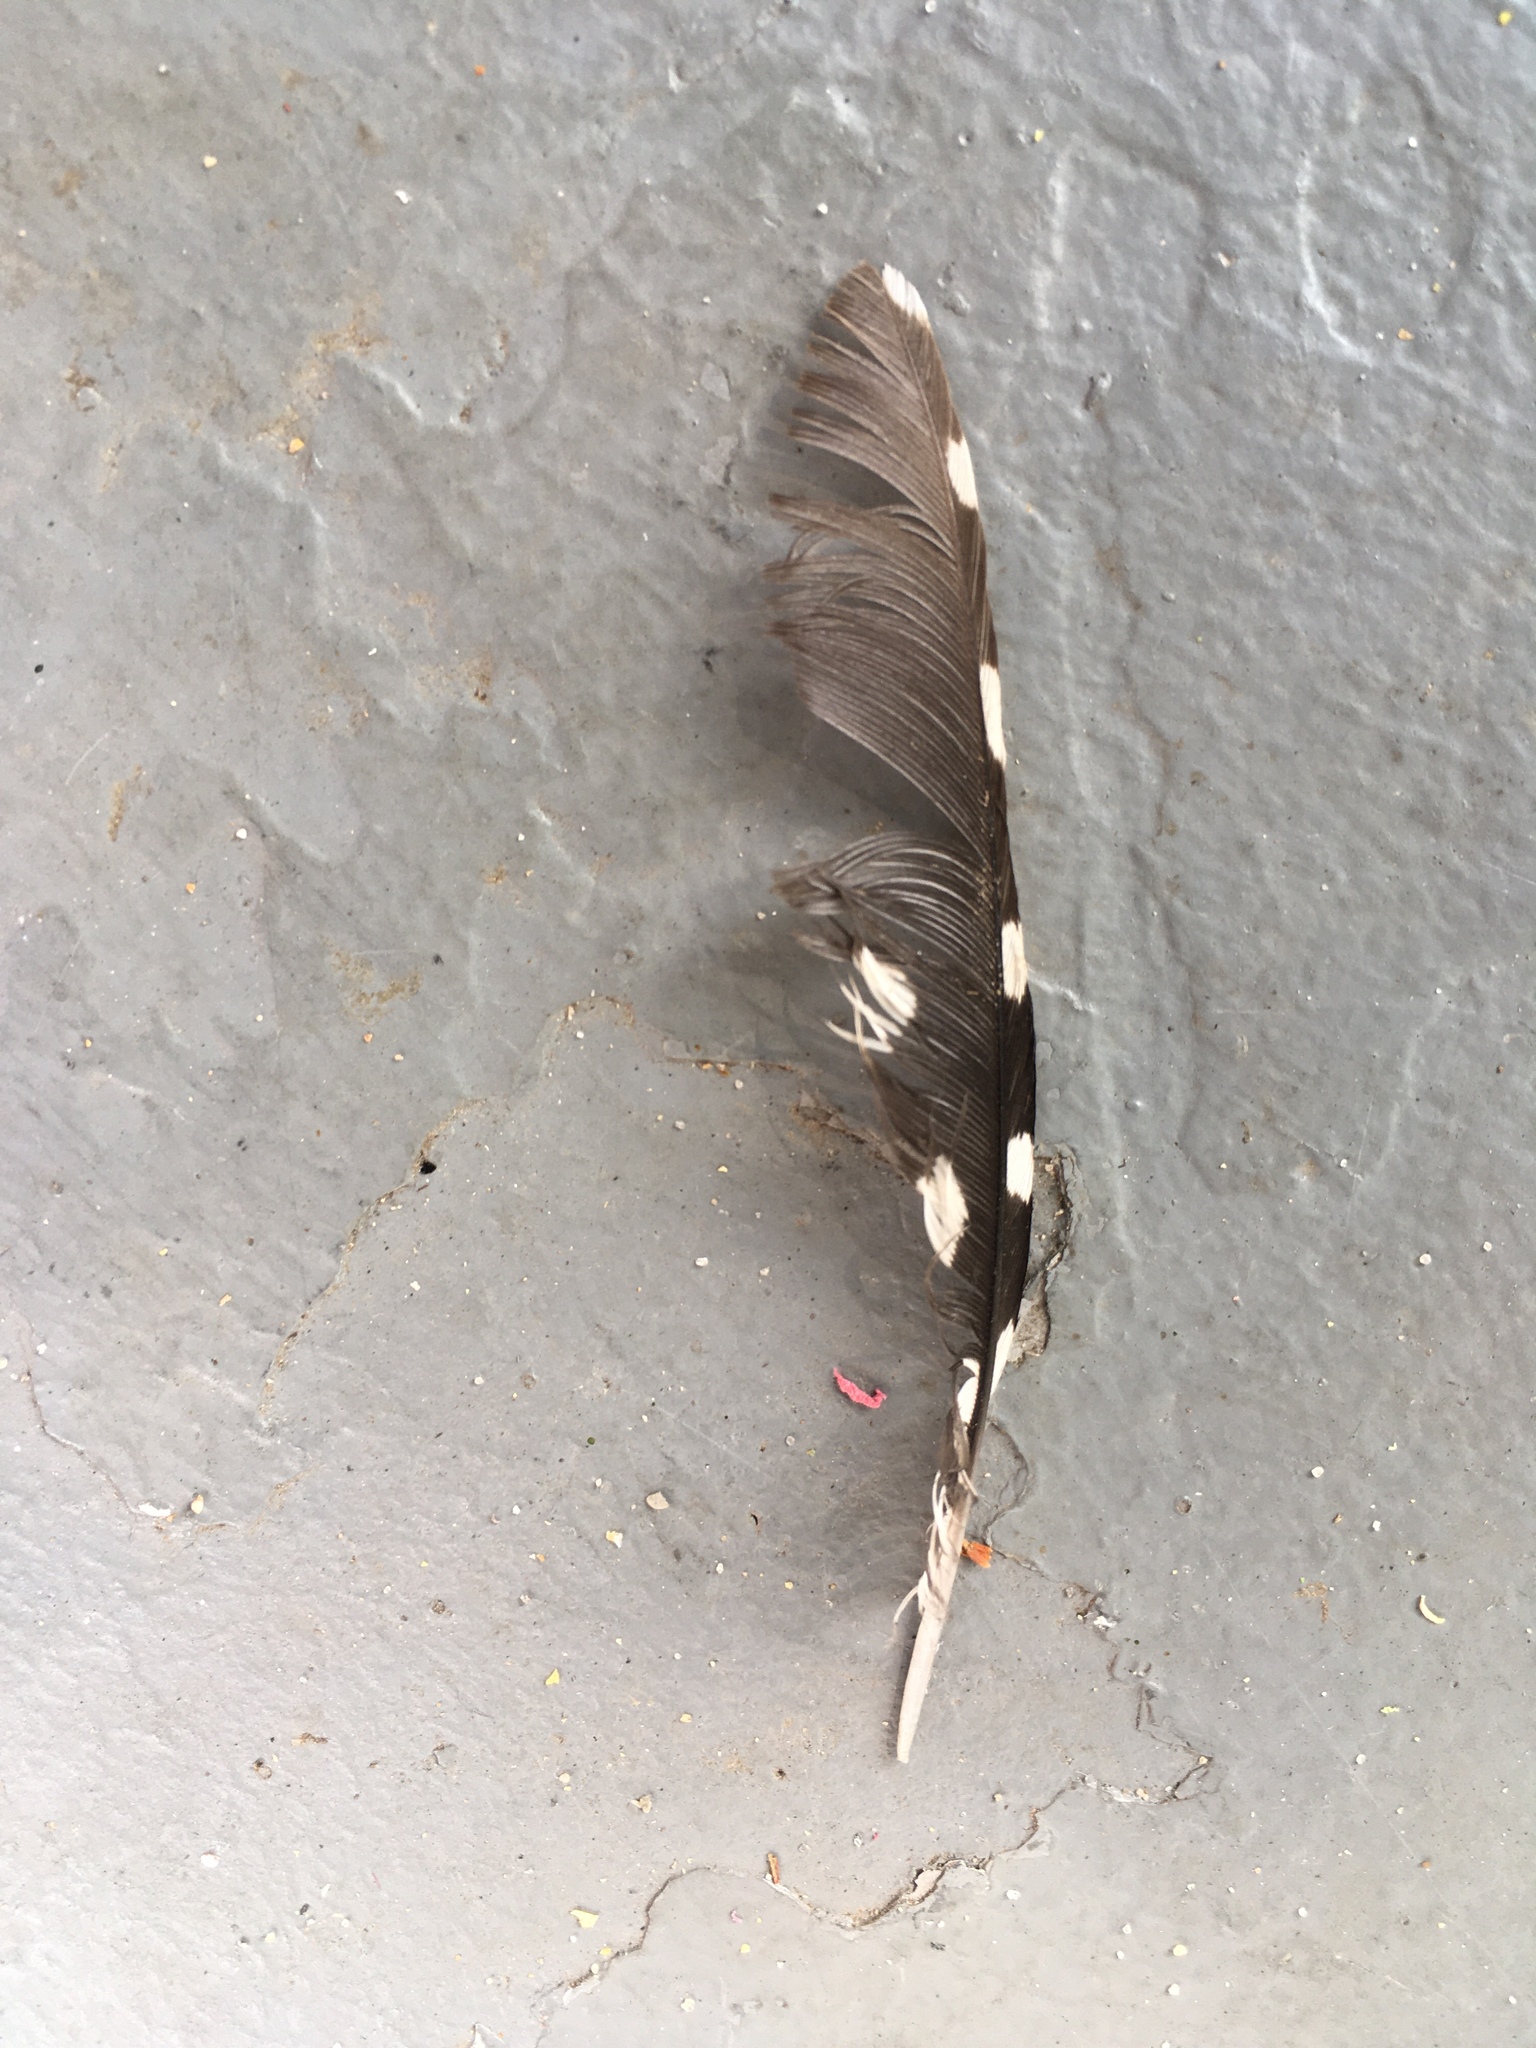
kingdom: Animalia
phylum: Chordata
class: Aves
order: Piciformes
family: Picidae
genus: Dryobates
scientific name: Dryobates pubescens
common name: Downy woodpecker
